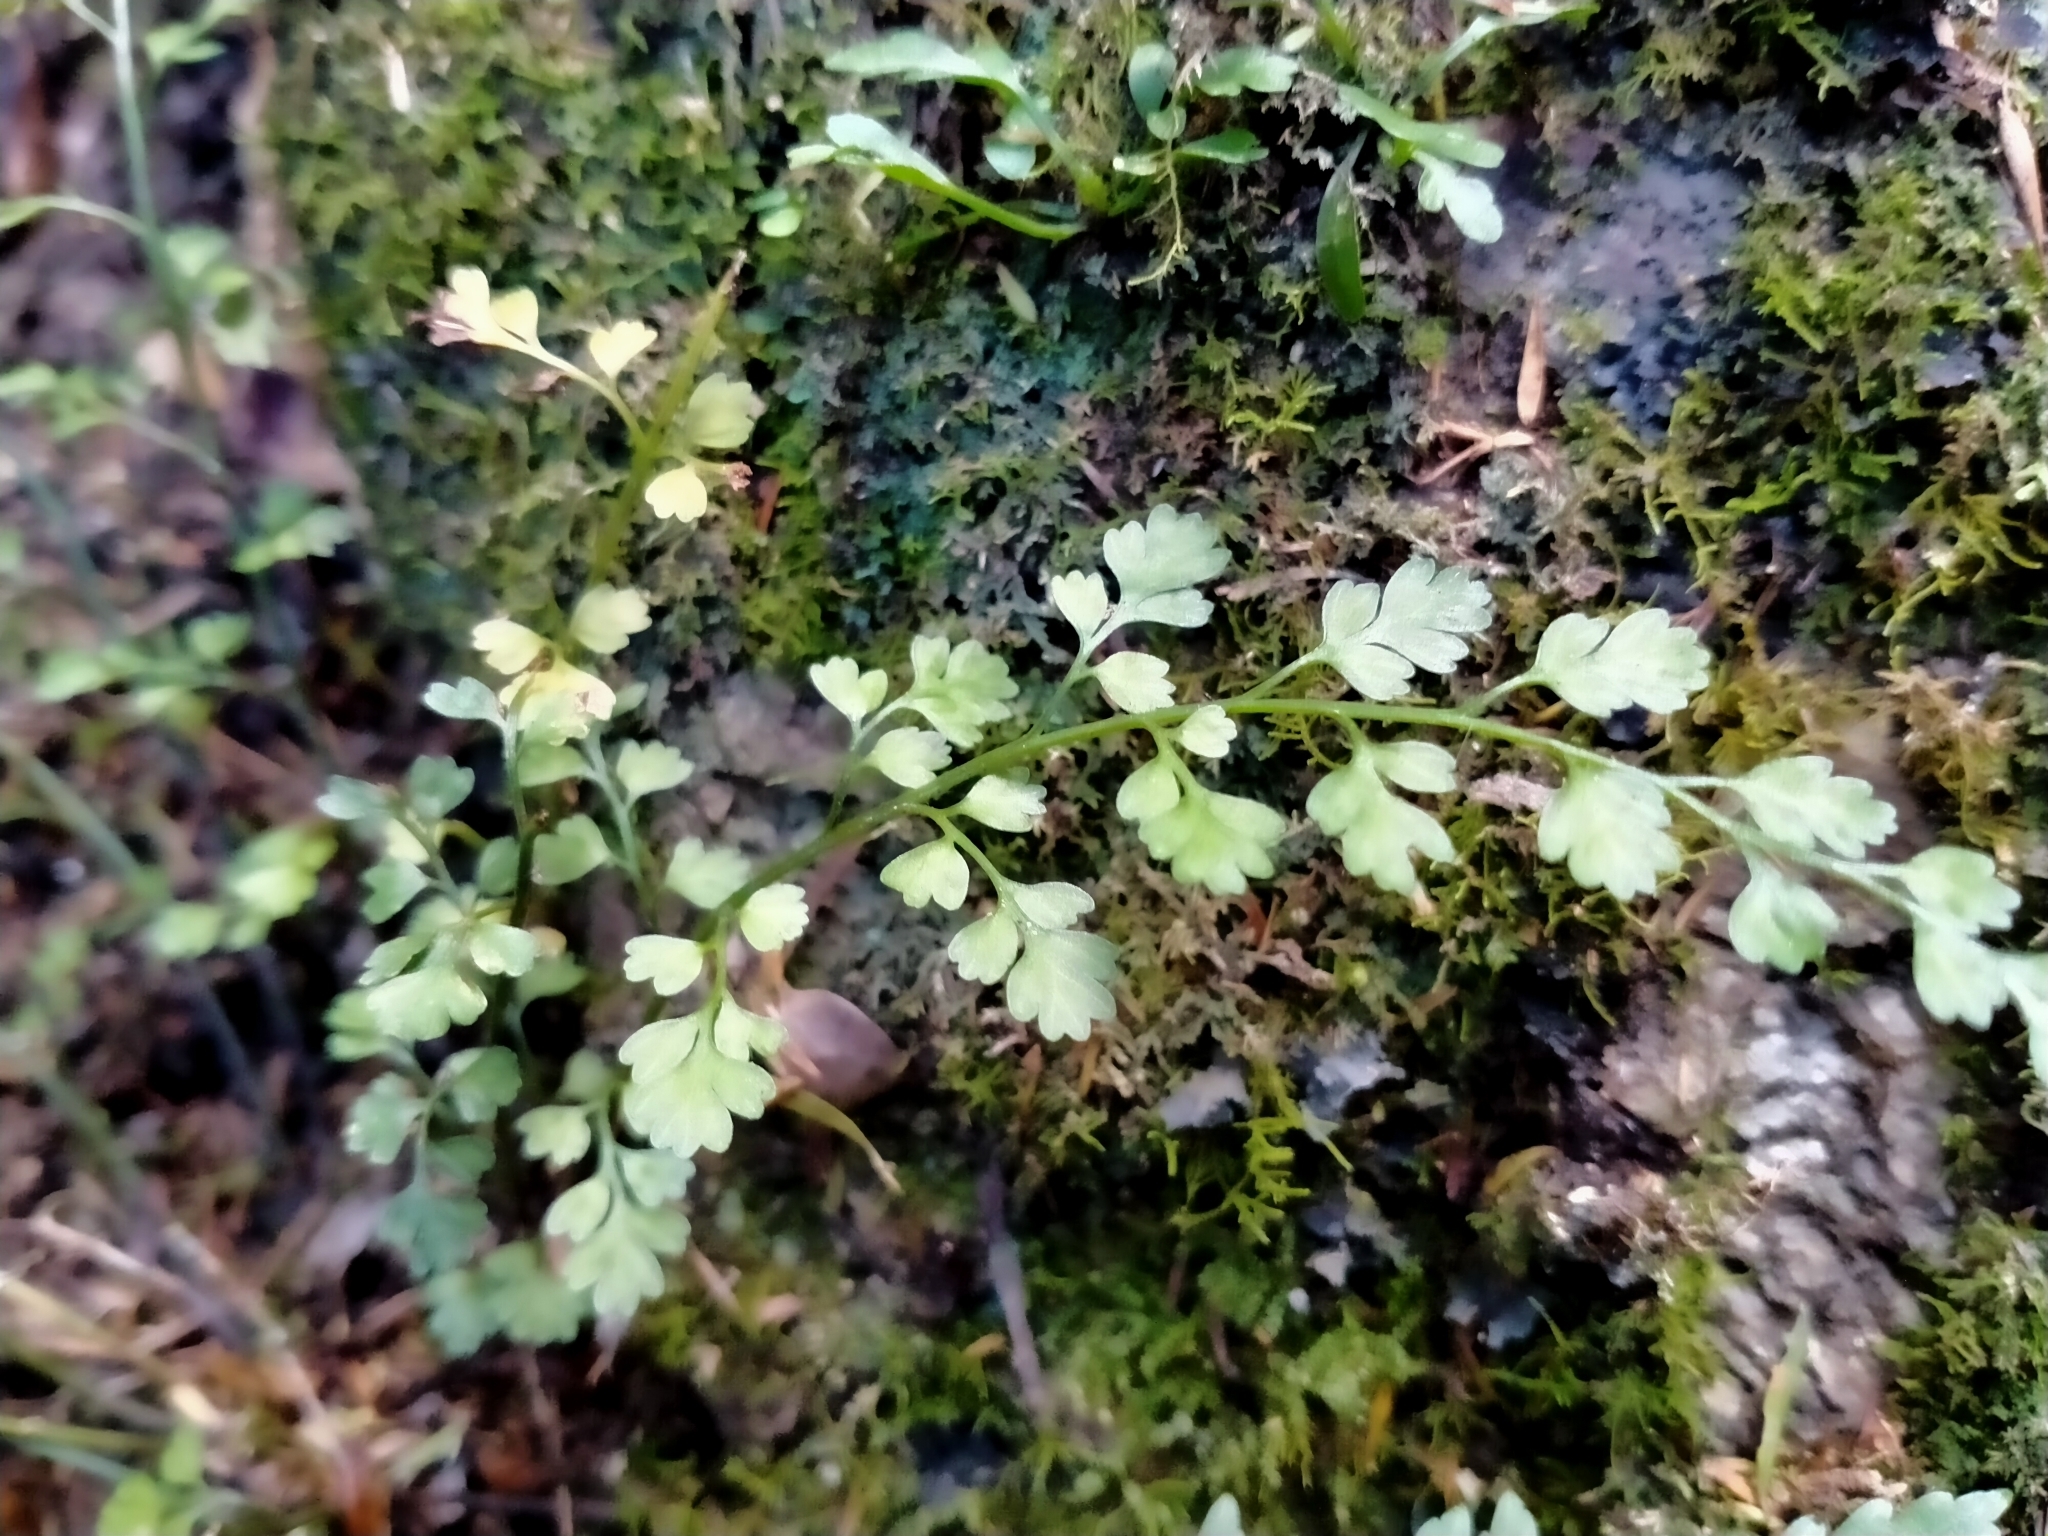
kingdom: Plantae
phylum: Tracheophyta
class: Polypodiopsida
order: Polypodiales
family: Aspleniaceae
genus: Asplenium
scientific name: Asplenium hookerianum
